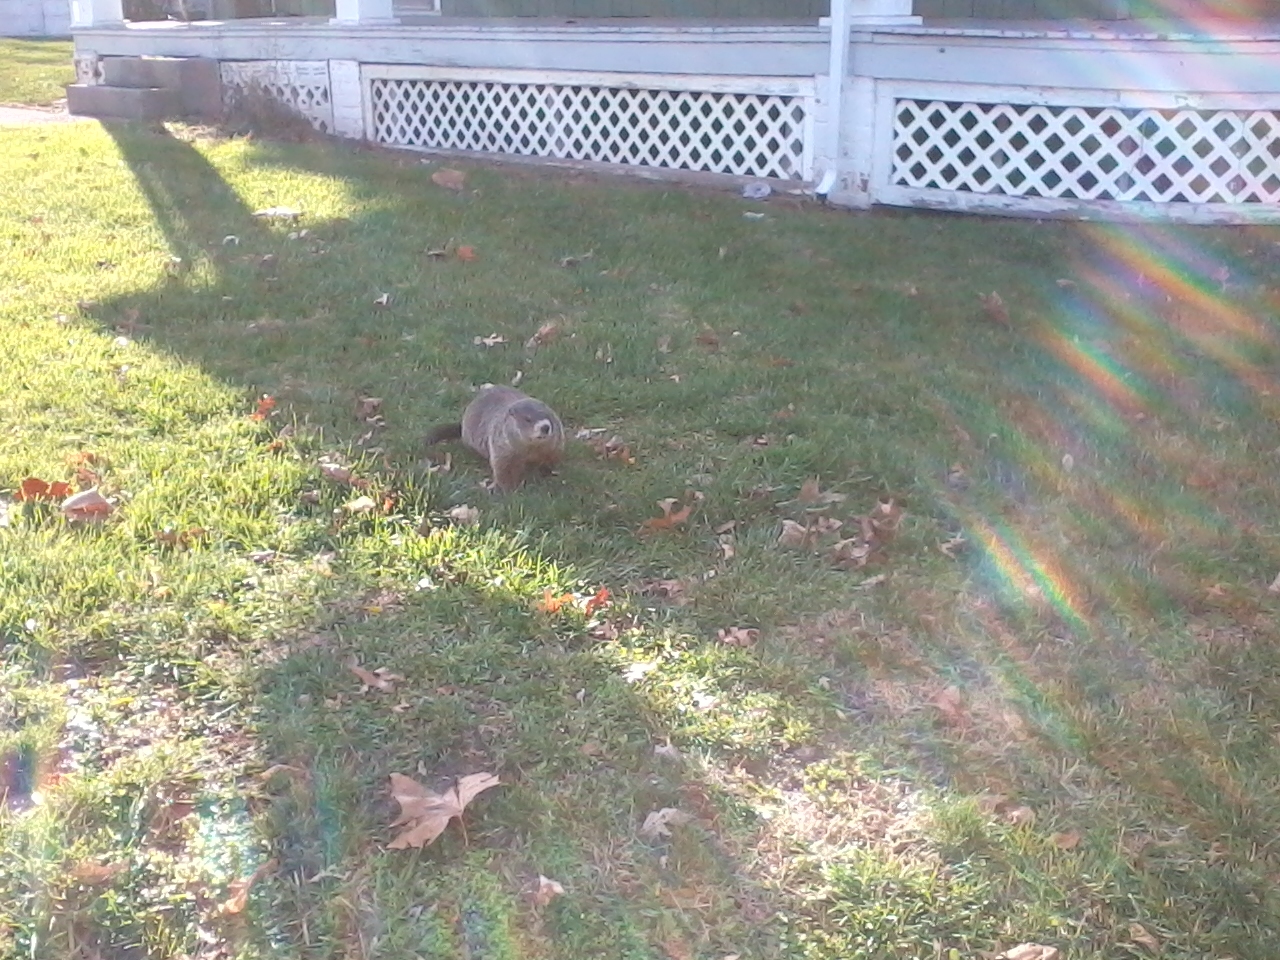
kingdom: Animalia
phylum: Chordata
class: Mammalia
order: Rodentia
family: Sciuridae
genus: Marmota
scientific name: Marmota monax
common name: Groundhog
